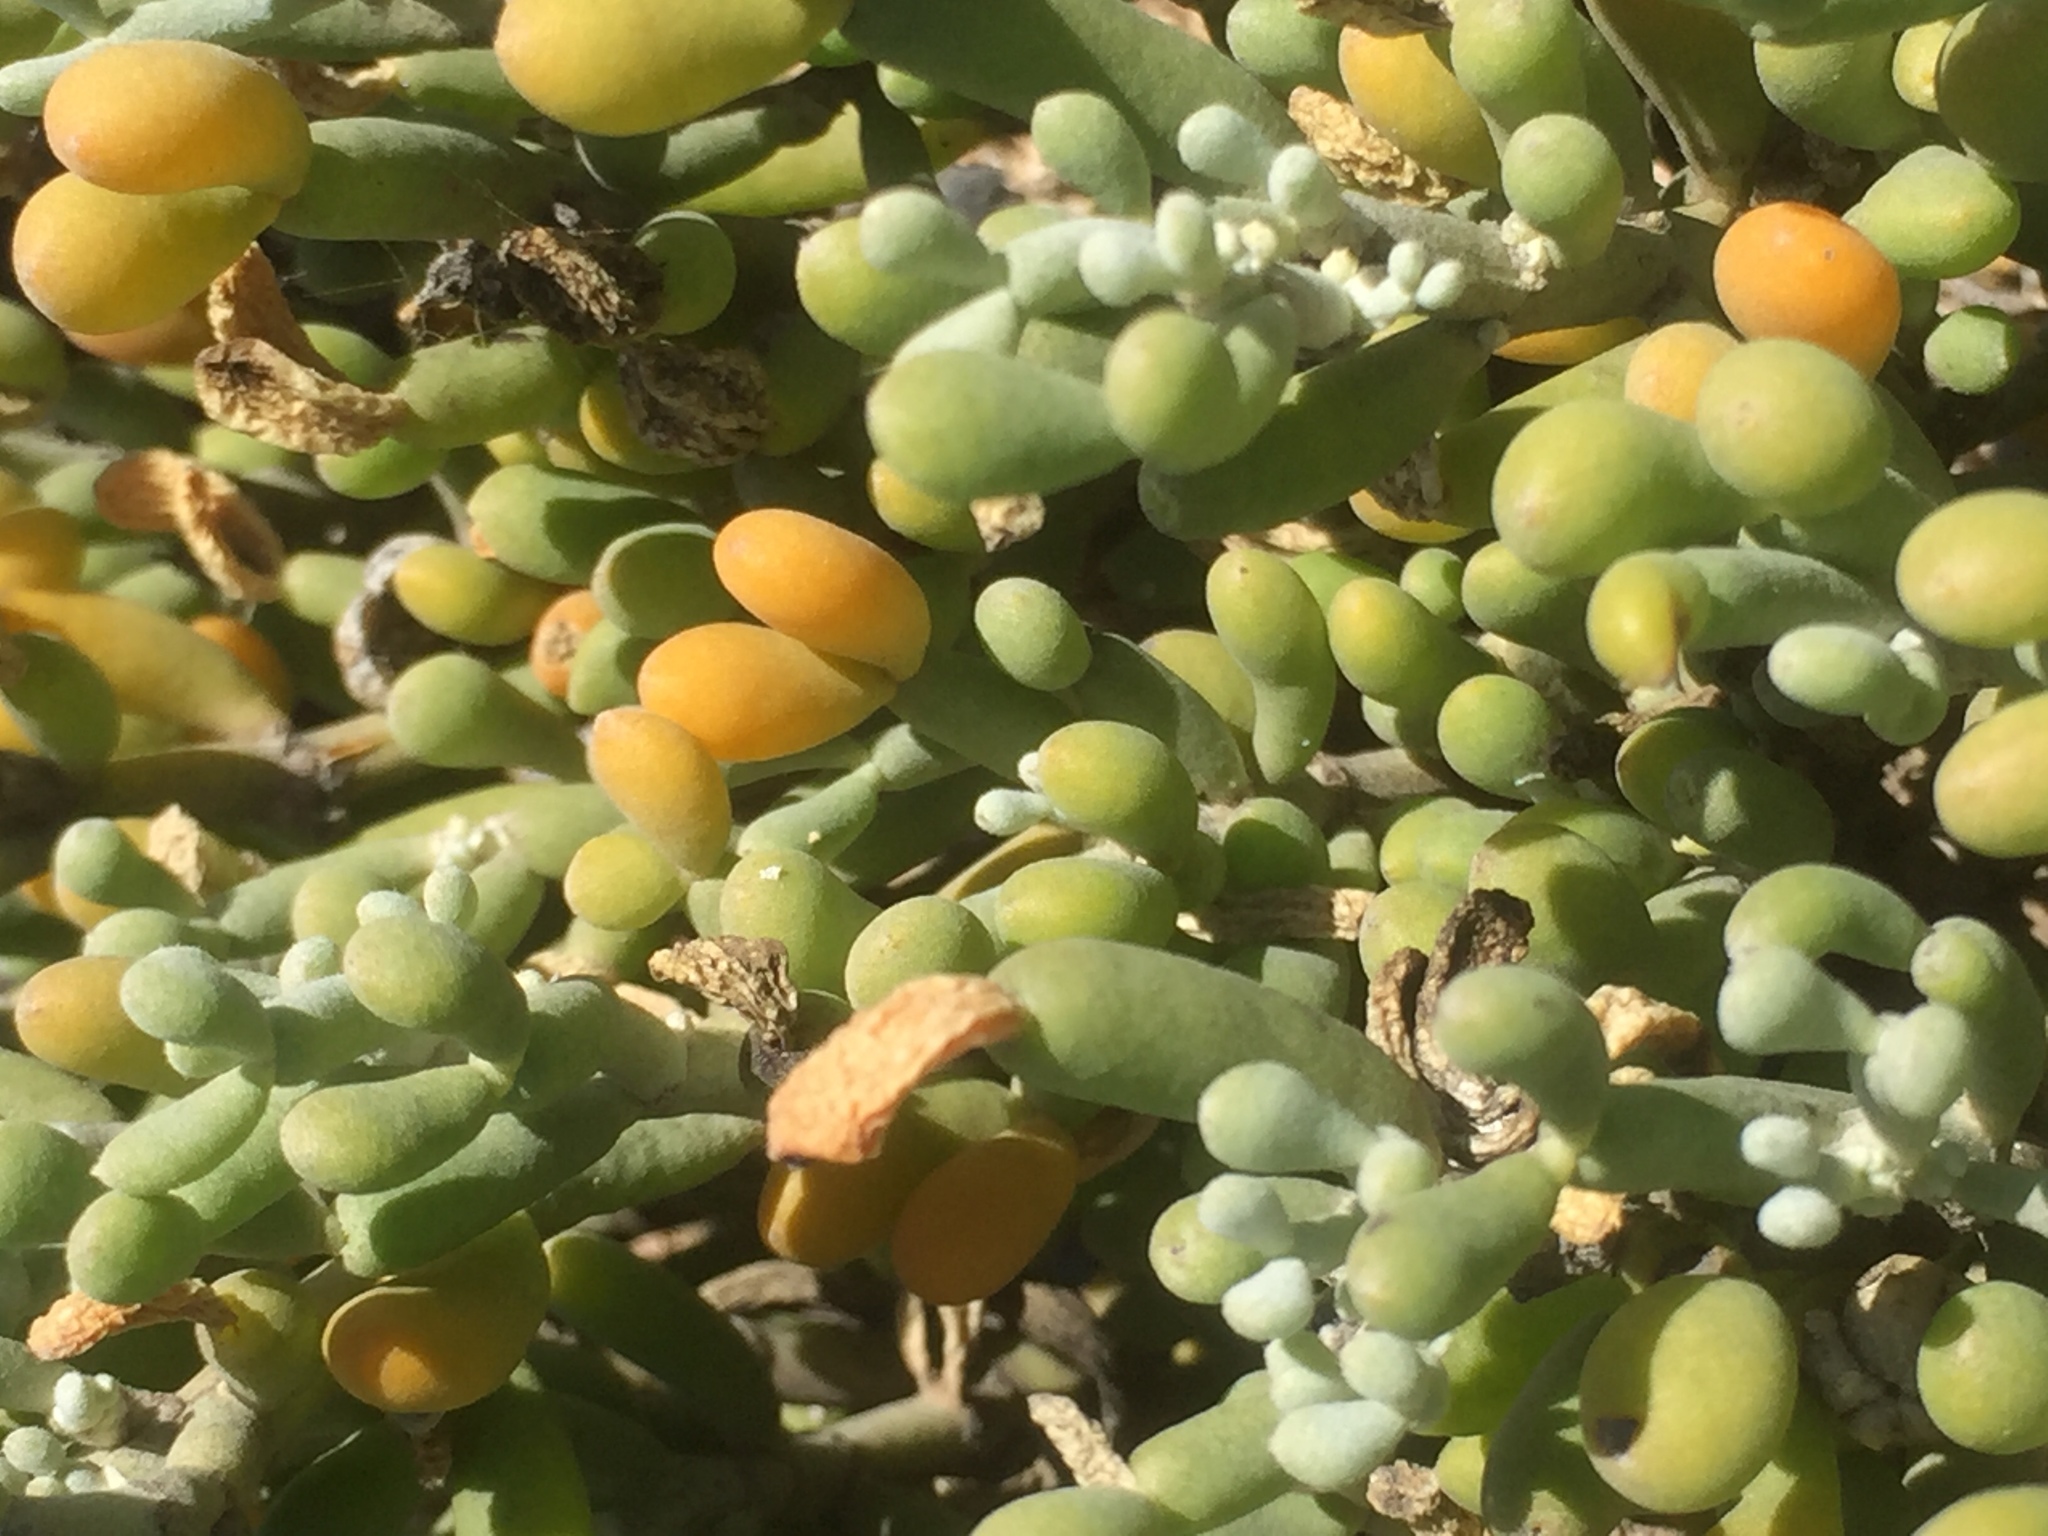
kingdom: Plantae
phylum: Tracheophyta
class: Magnoliopsida
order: Zygophyllales
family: Zygophyllaceae
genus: Tetraena
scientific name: Tetraena fontanesii
